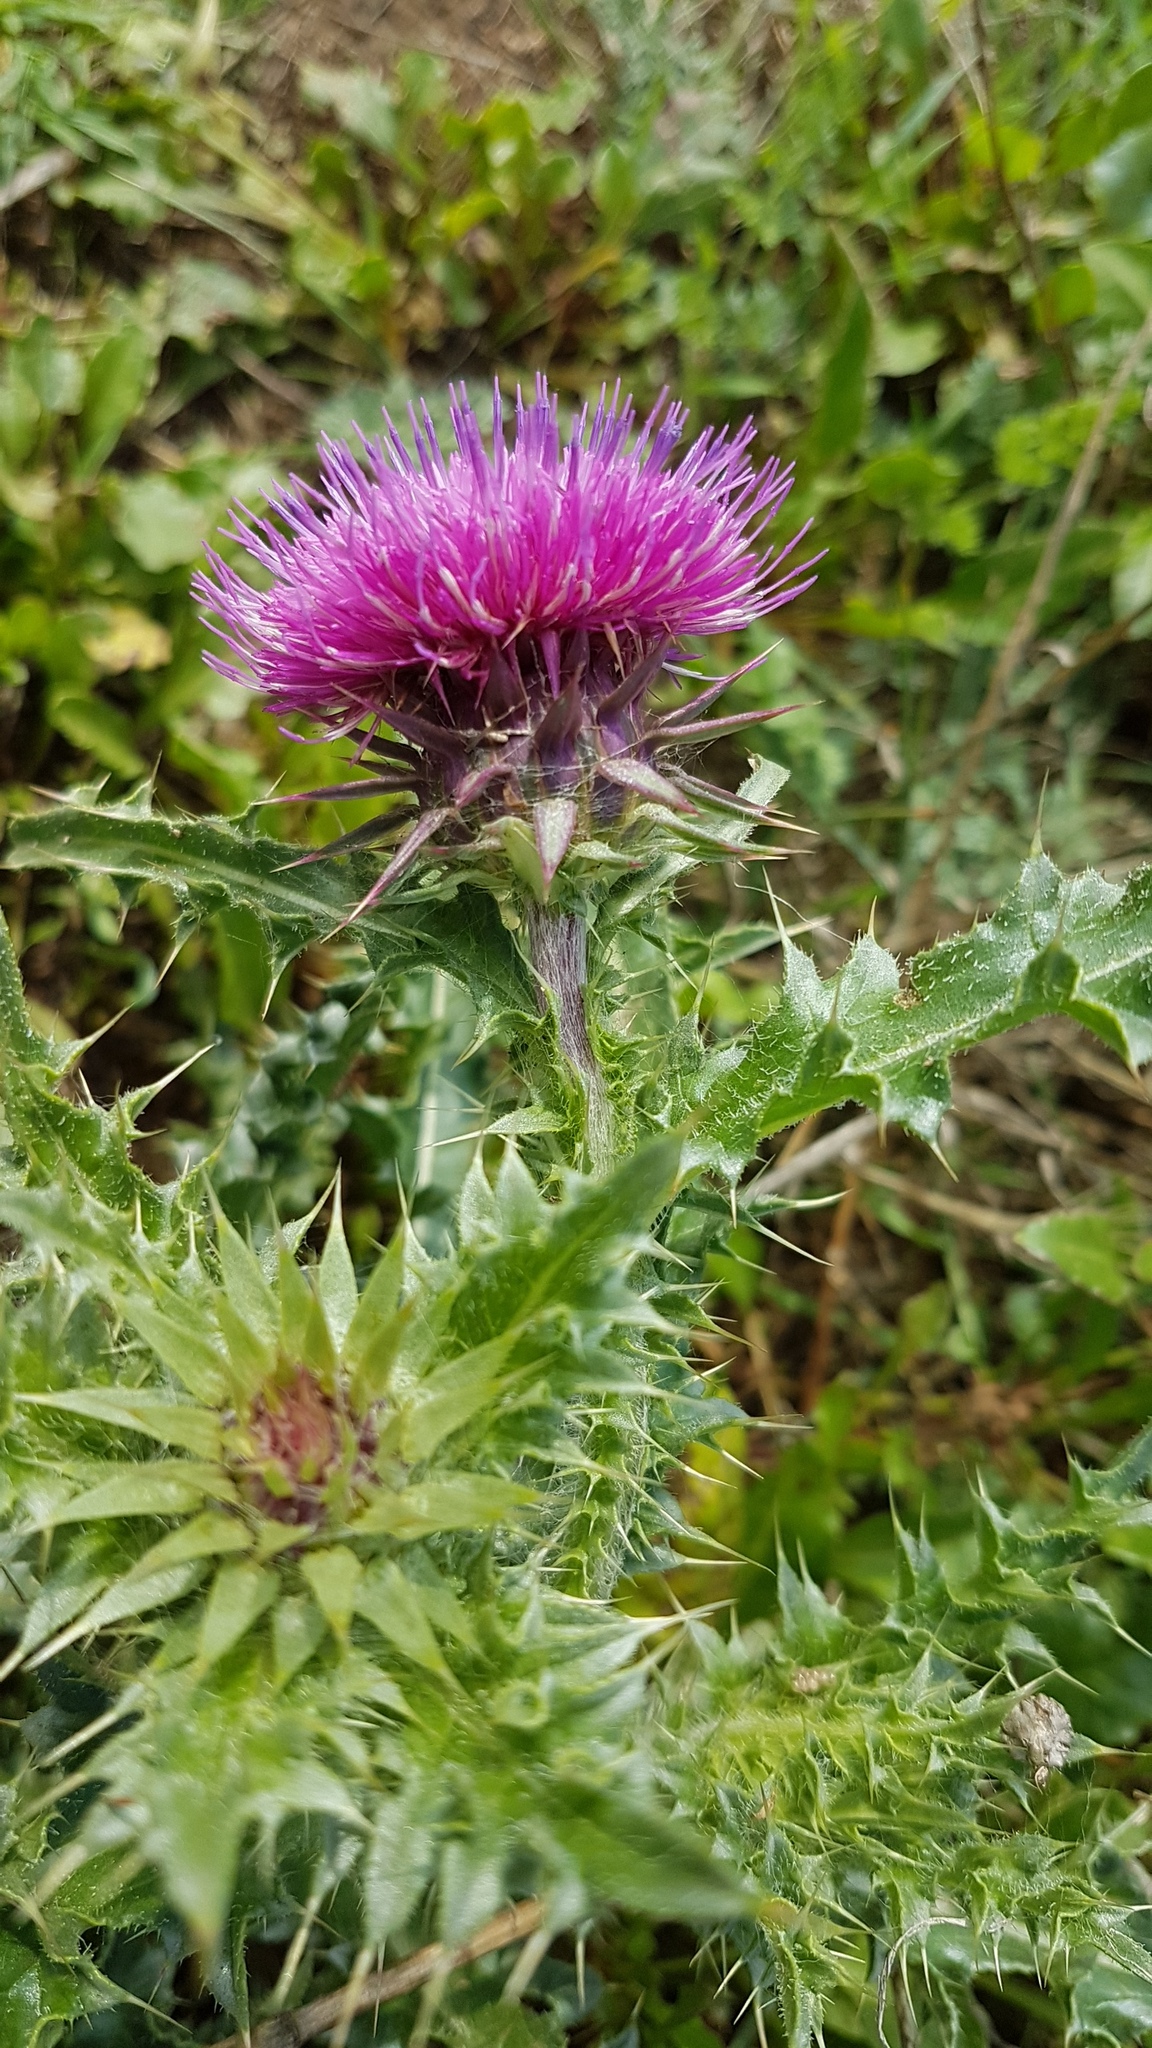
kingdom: Plantae
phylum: Tracheophyta
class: Magnoliopsida
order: Asterales
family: Asteraceae
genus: Carduus
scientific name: Carduus nutans
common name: Musk thistle
